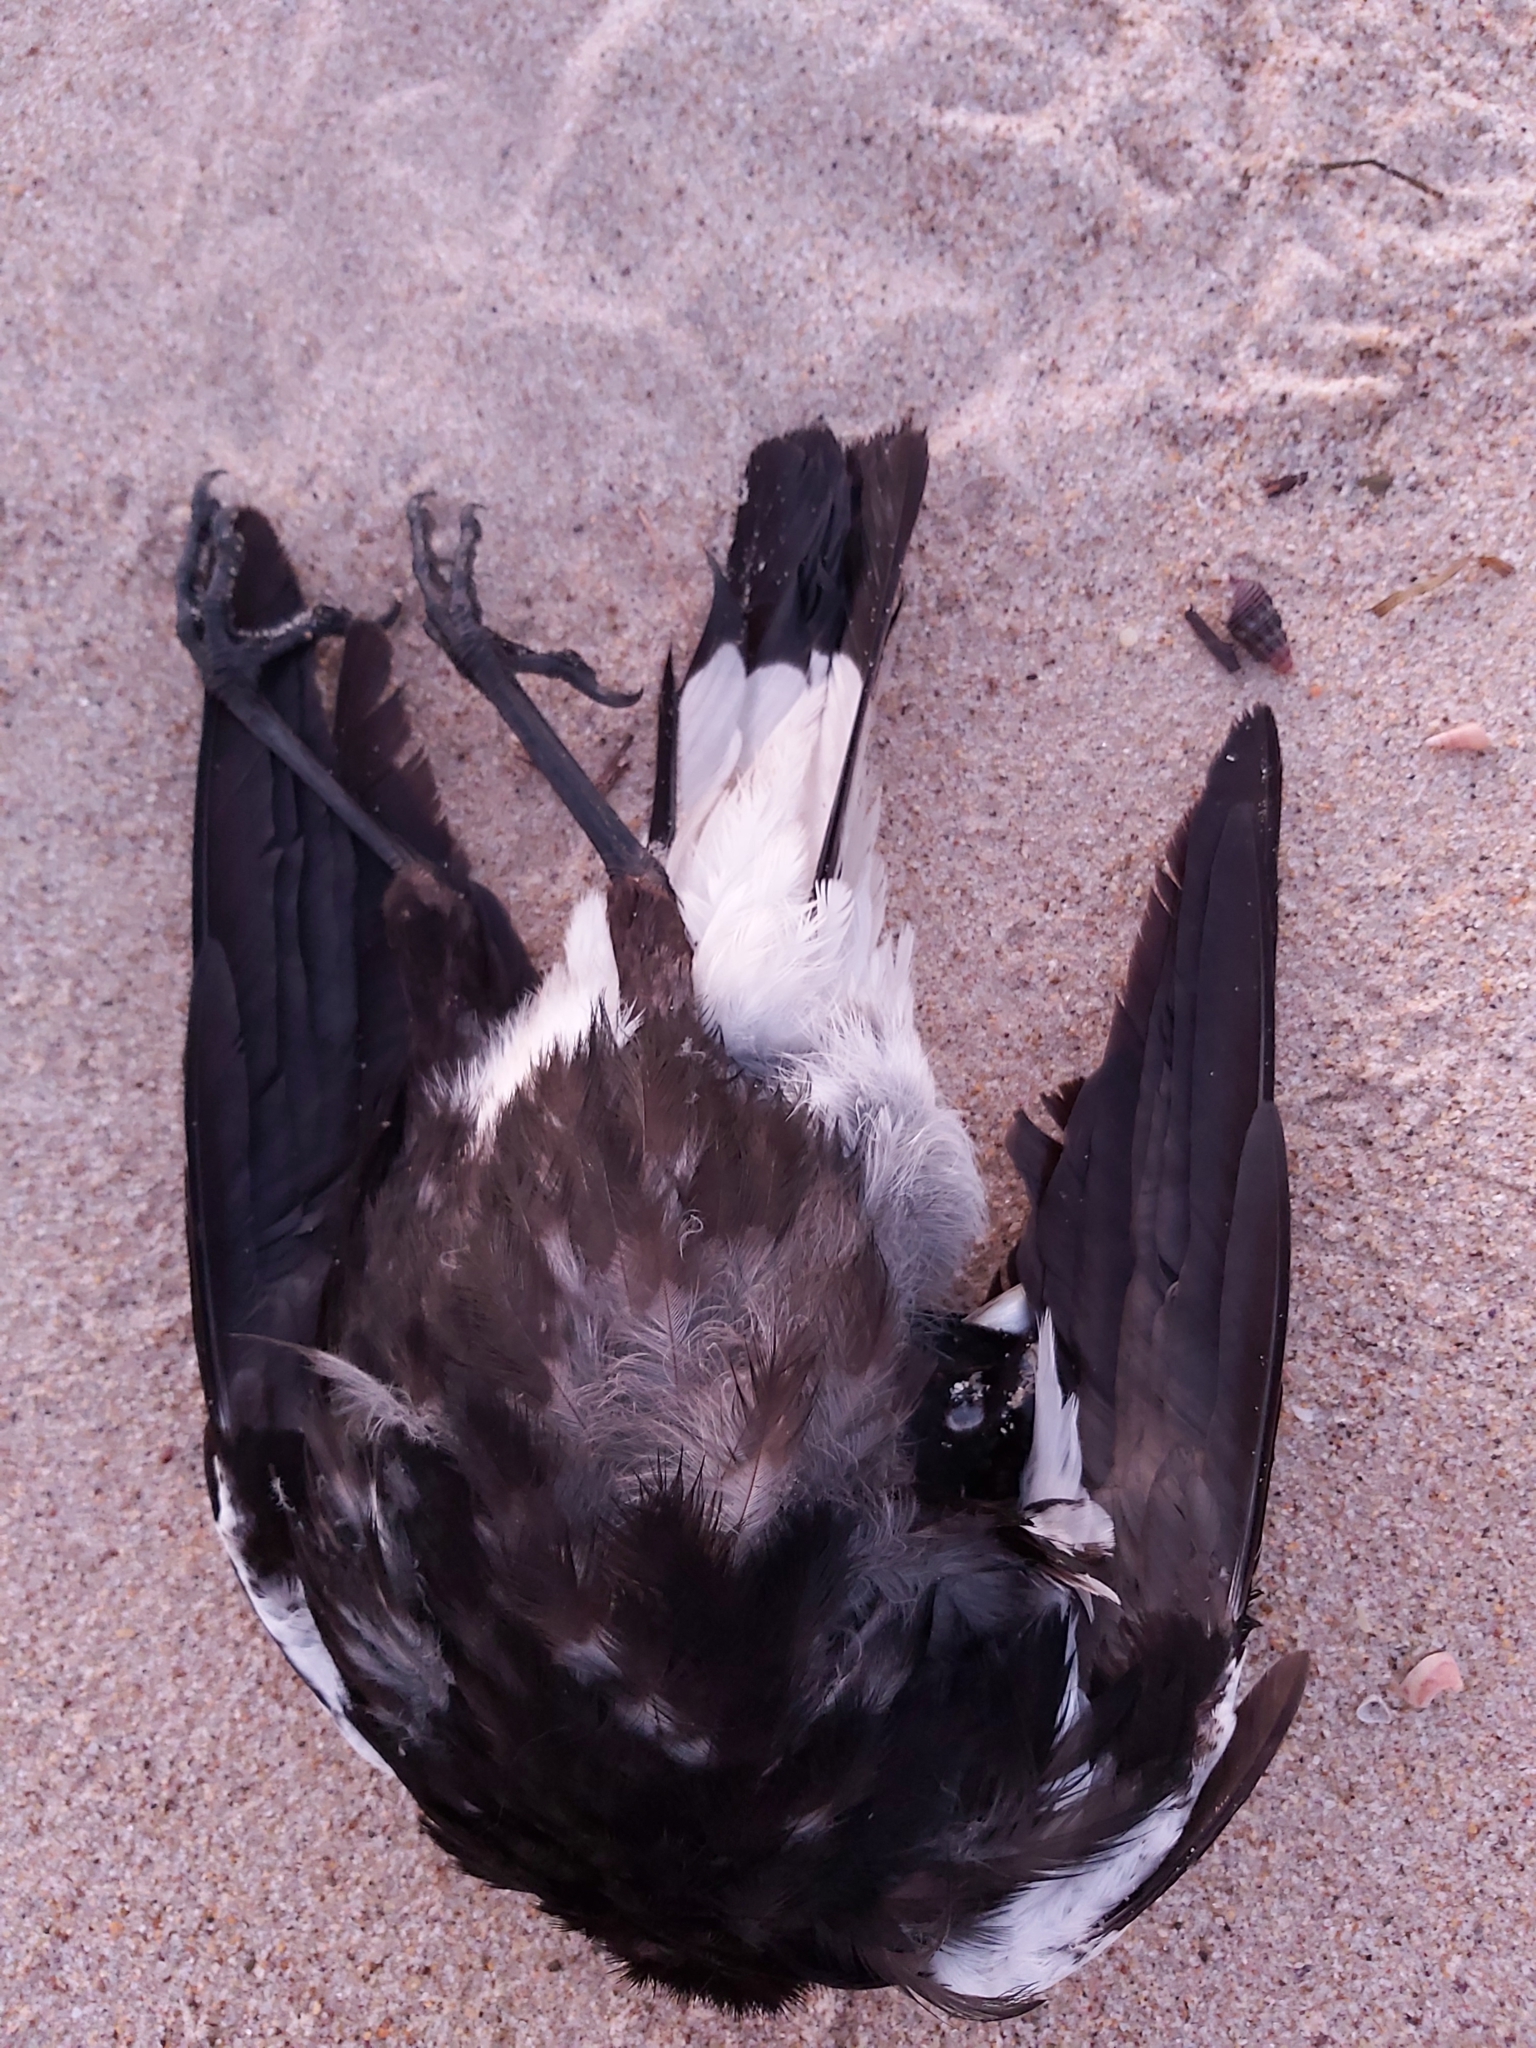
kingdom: Animalia
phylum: Chordata
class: Aves
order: Passeriformes
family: Cracticidae
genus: Gymnorhina
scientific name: Gymnorhina tibicen
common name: Australian magpie
